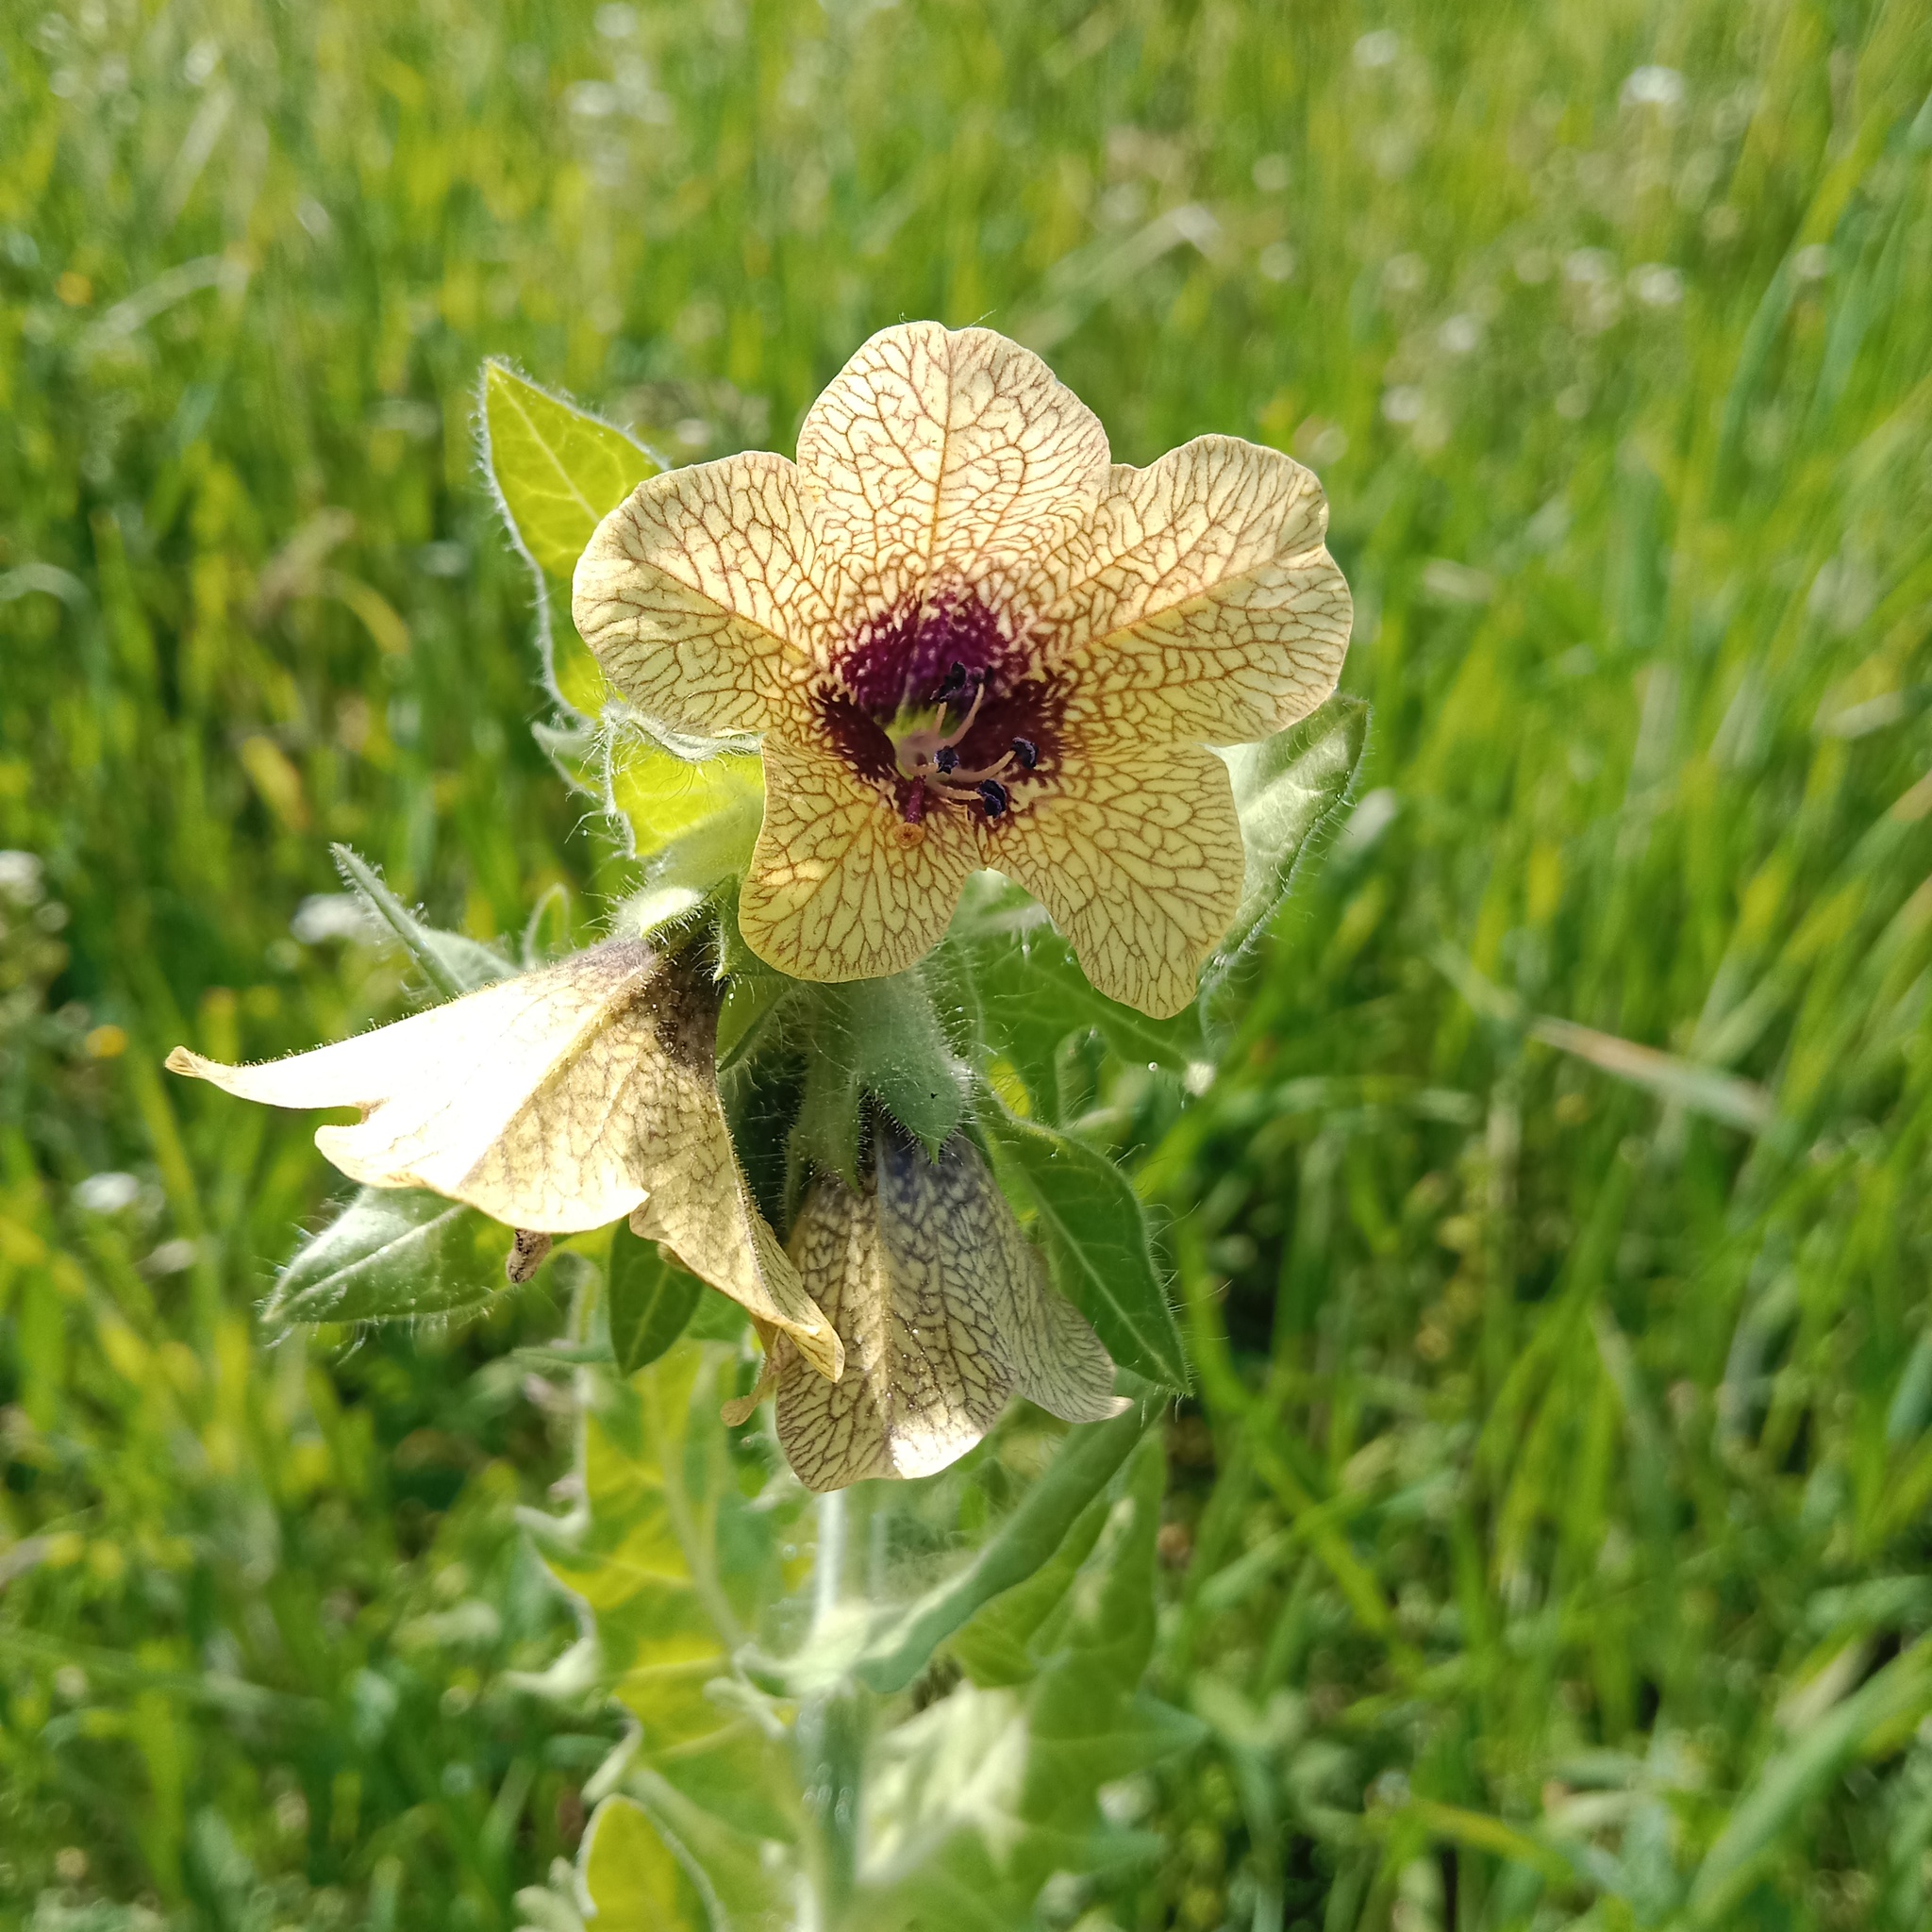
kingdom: Plantae
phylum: Tracheophyta
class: Magnoliopsida
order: Solanales
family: Solanaceae
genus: Hyoscyamus
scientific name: Hyoscyamus niger
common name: Henbane
